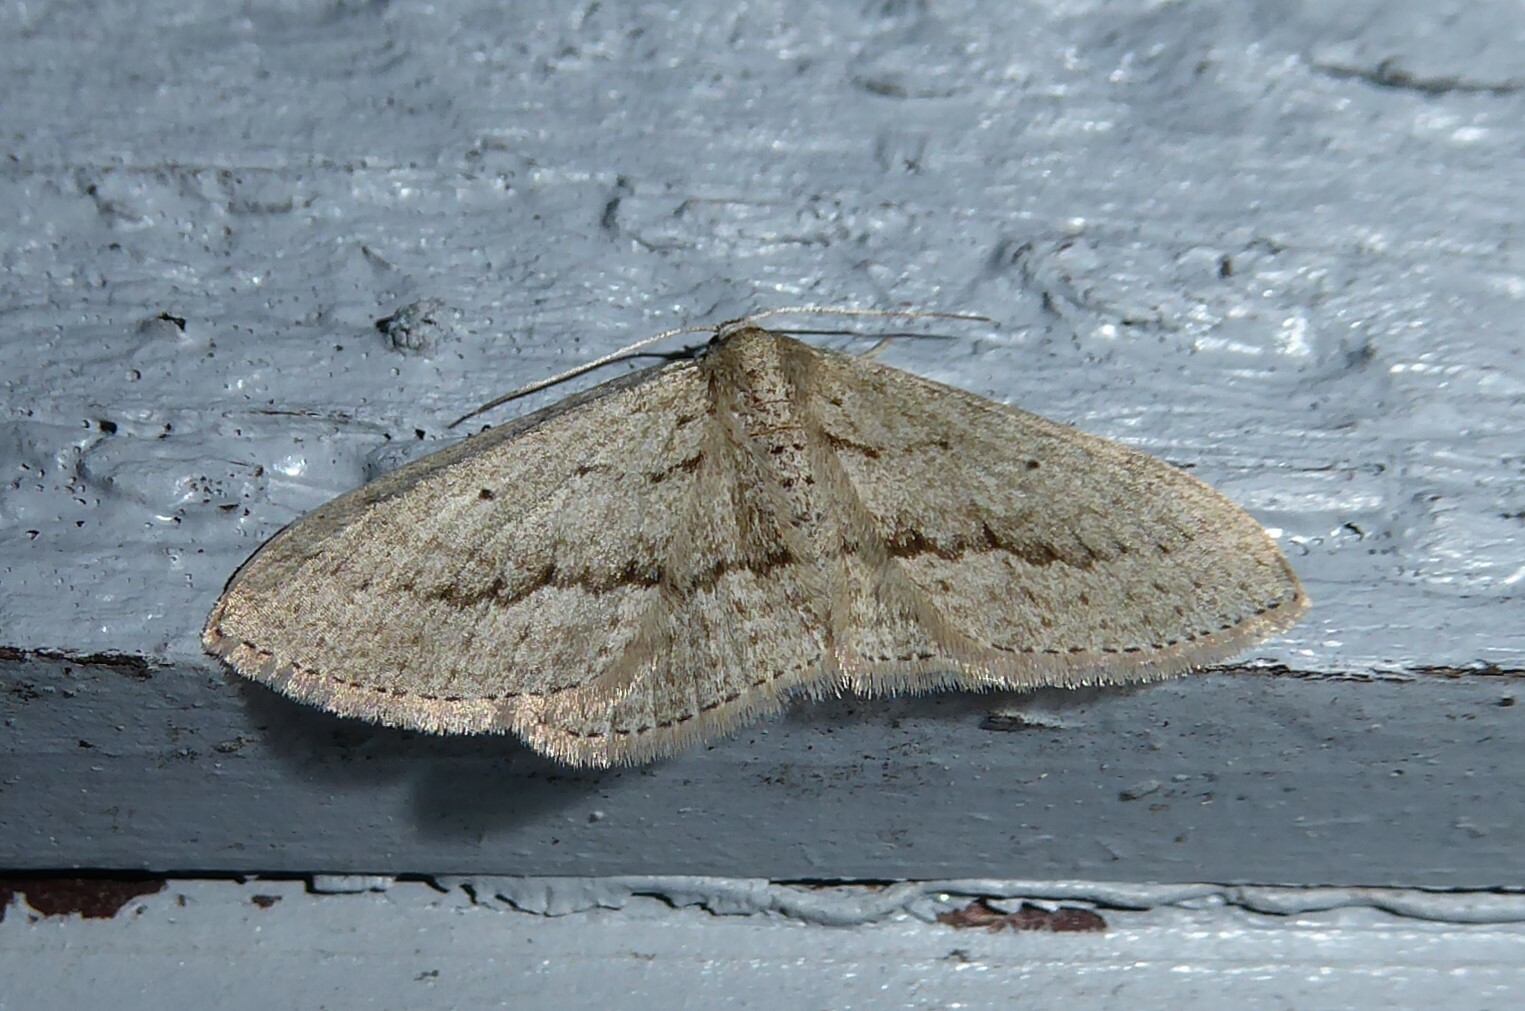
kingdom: Animalia
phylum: Arthropoda
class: Insecta
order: Lepidoptera
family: Geometridae
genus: Poecilasthena
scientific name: Poecilasthena schistaria
